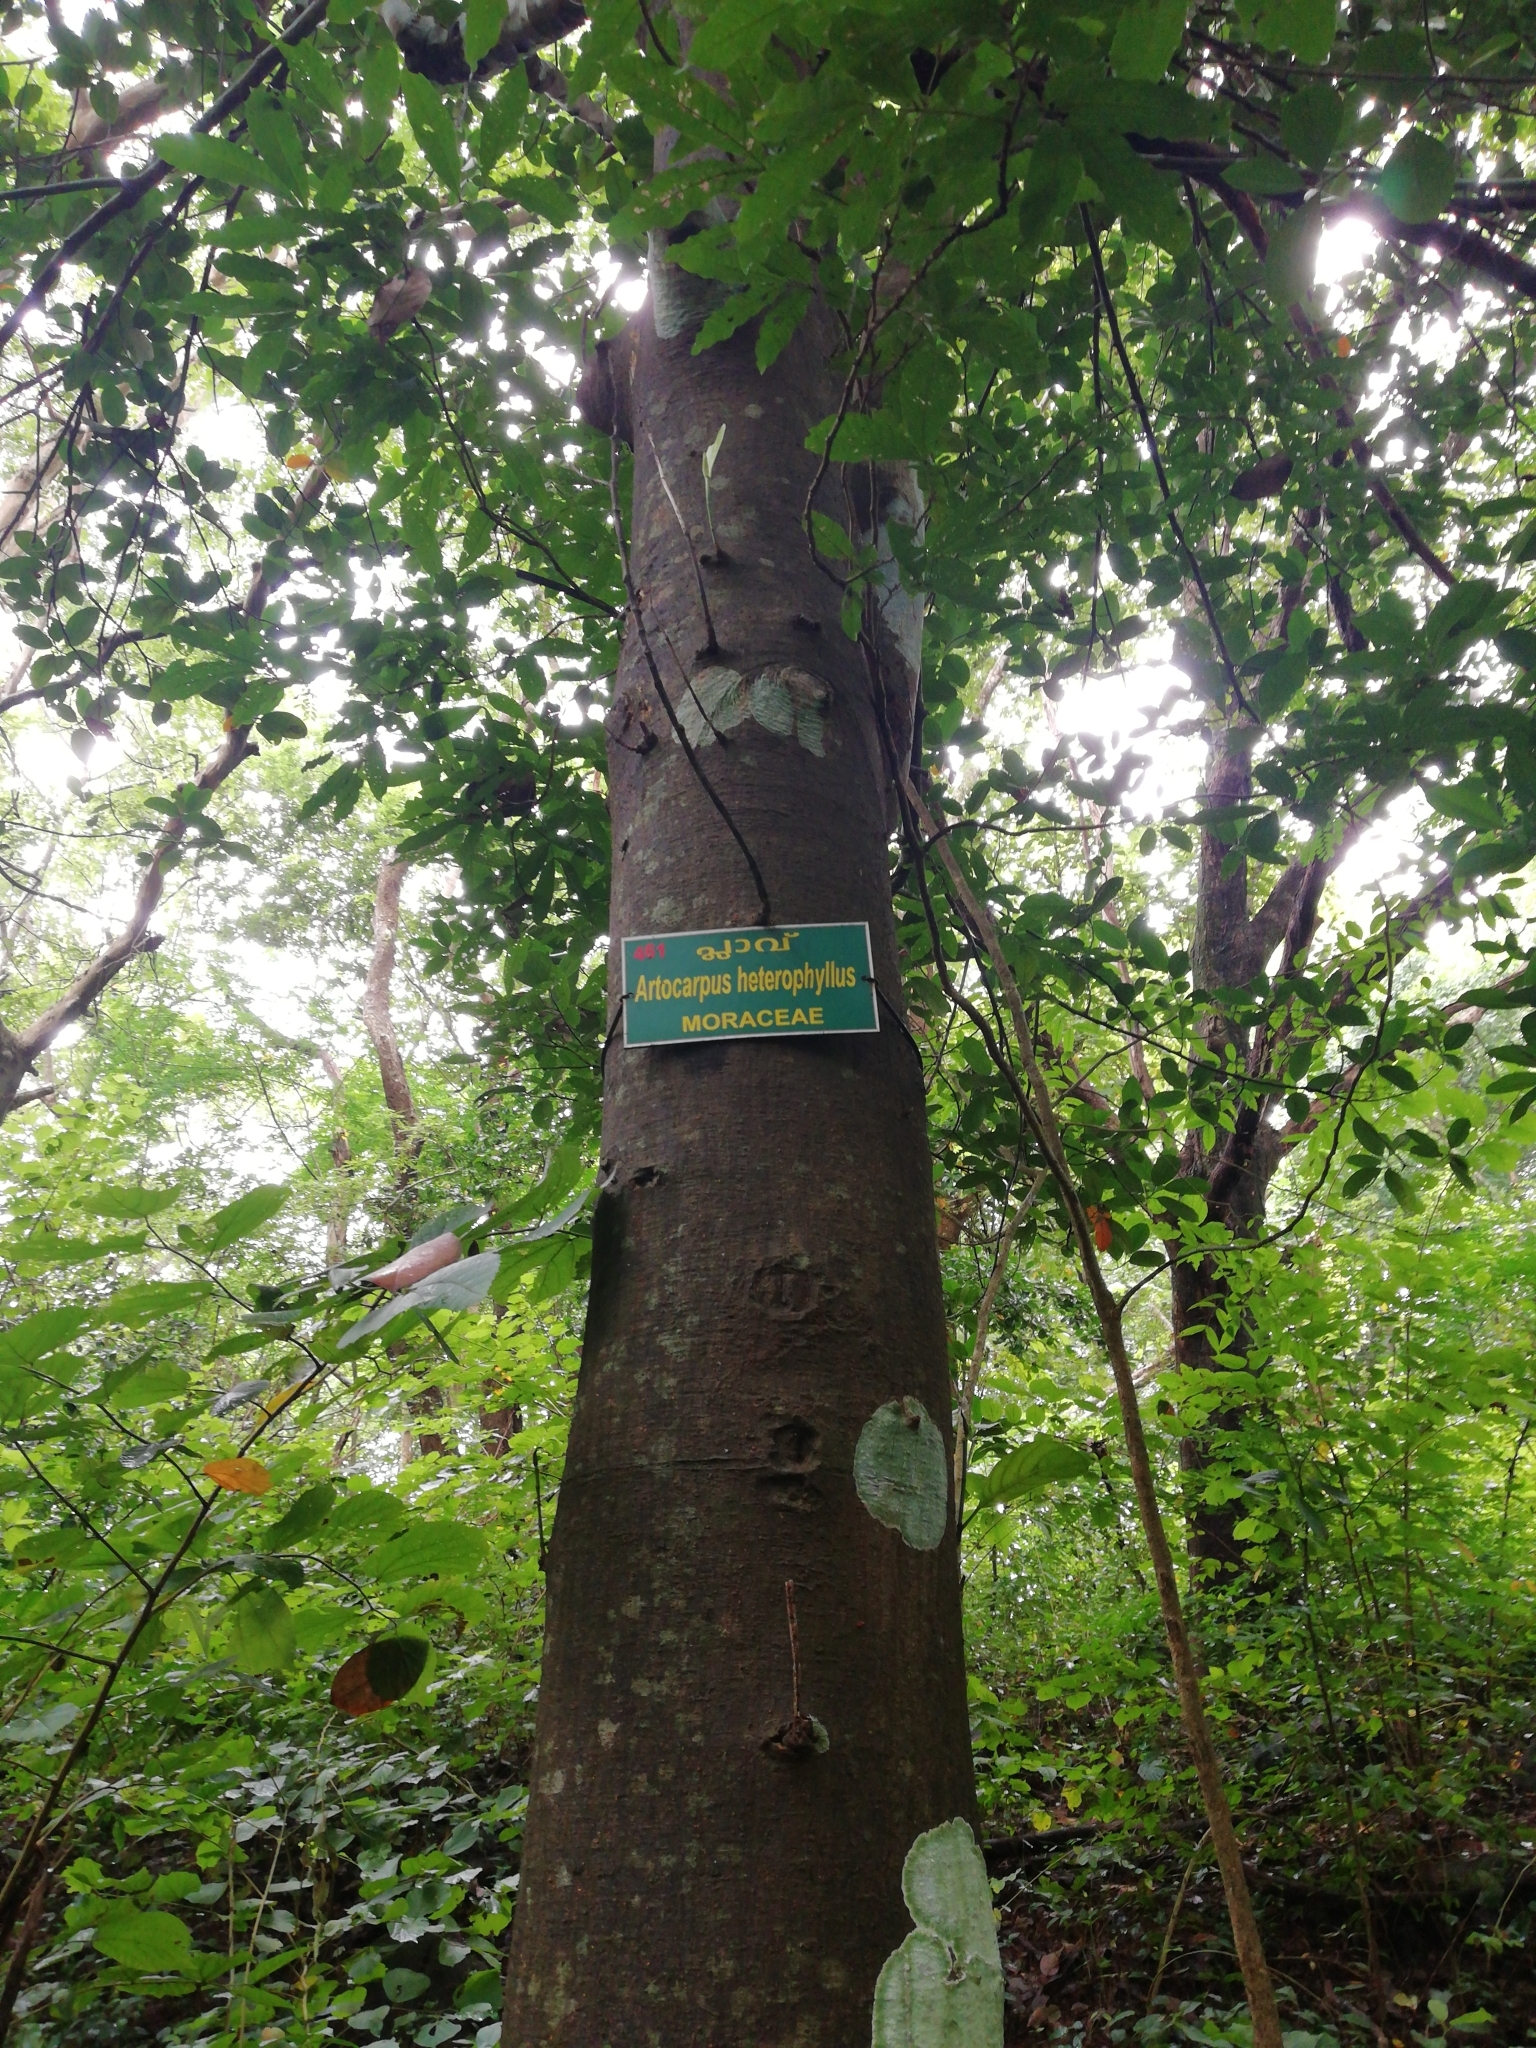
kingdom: Plantae
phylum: Tracheophyta
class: Magnoliopsida
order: Rosales
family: Moraceae
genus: Artocarpus
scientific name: Artocarpus heterophyllus
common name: Jackfruit
